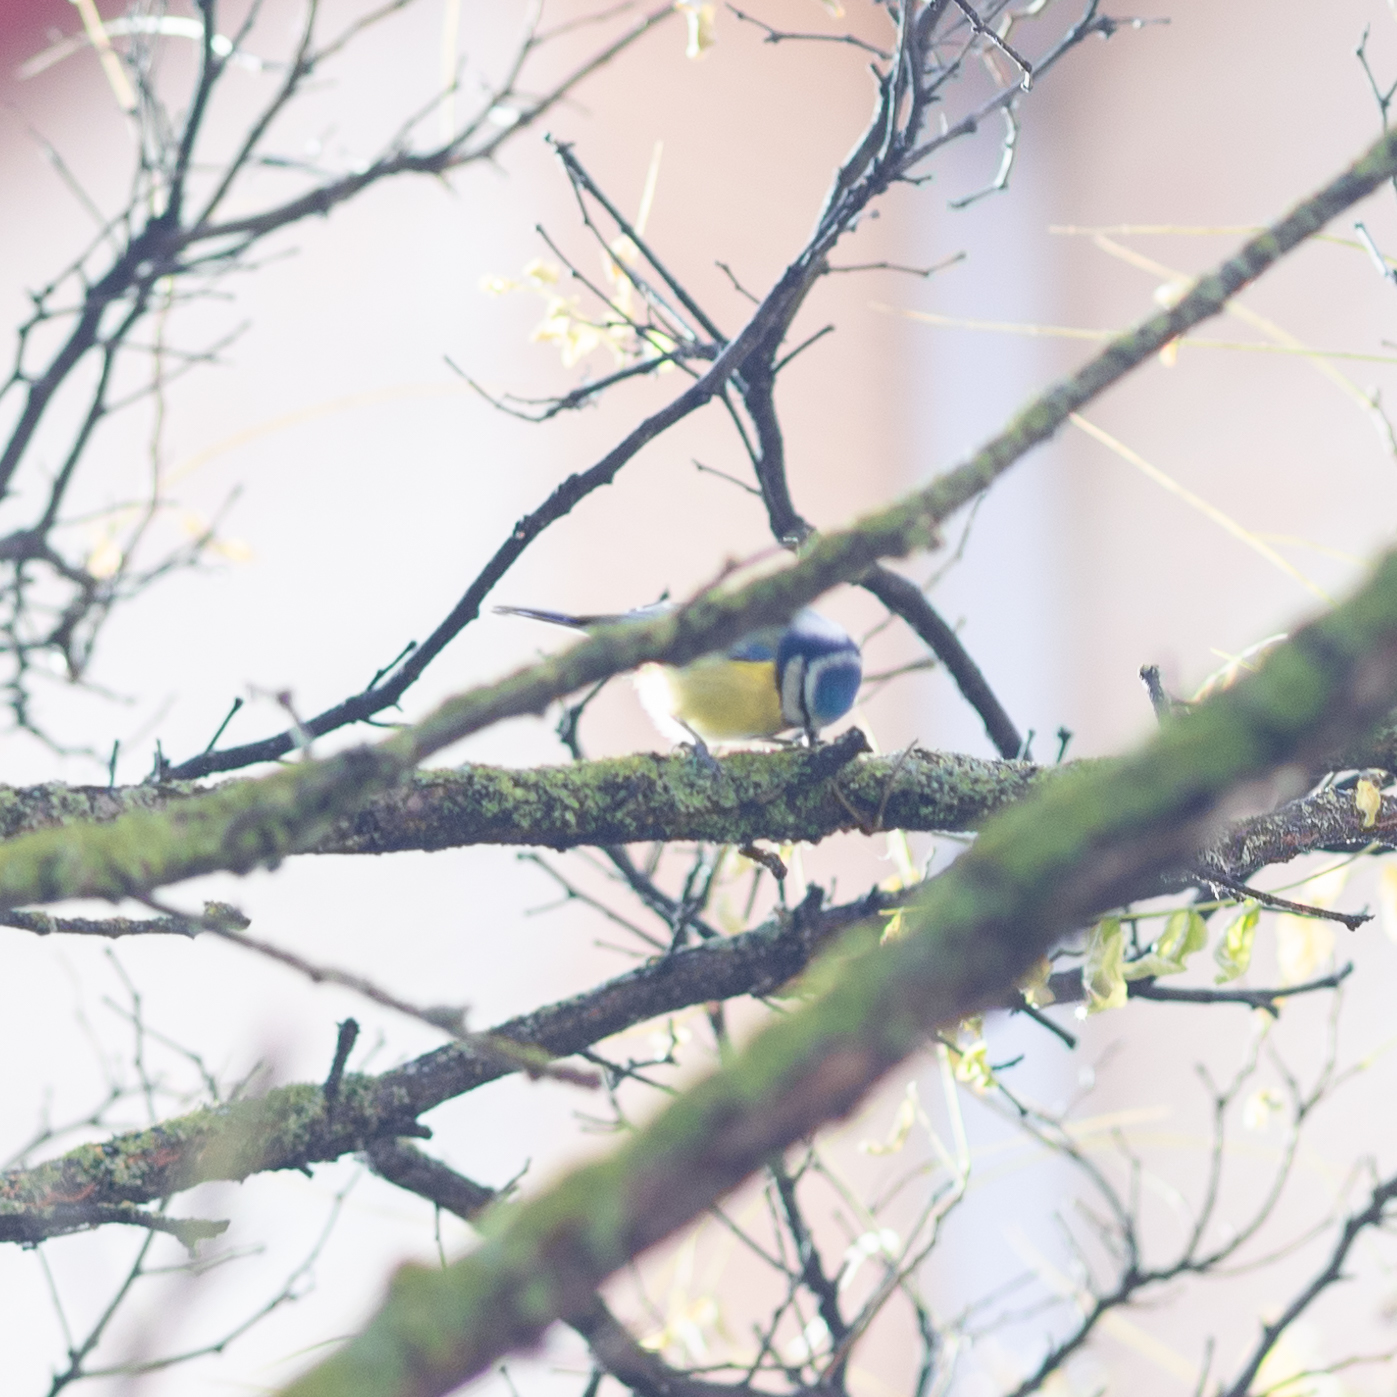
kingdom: Animalia
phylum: Chordata
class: Aves
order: Passeriformes
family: Paridae
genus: Cyanistes
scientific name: Cyanistes caeruleus
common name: Eurasian blue tit
